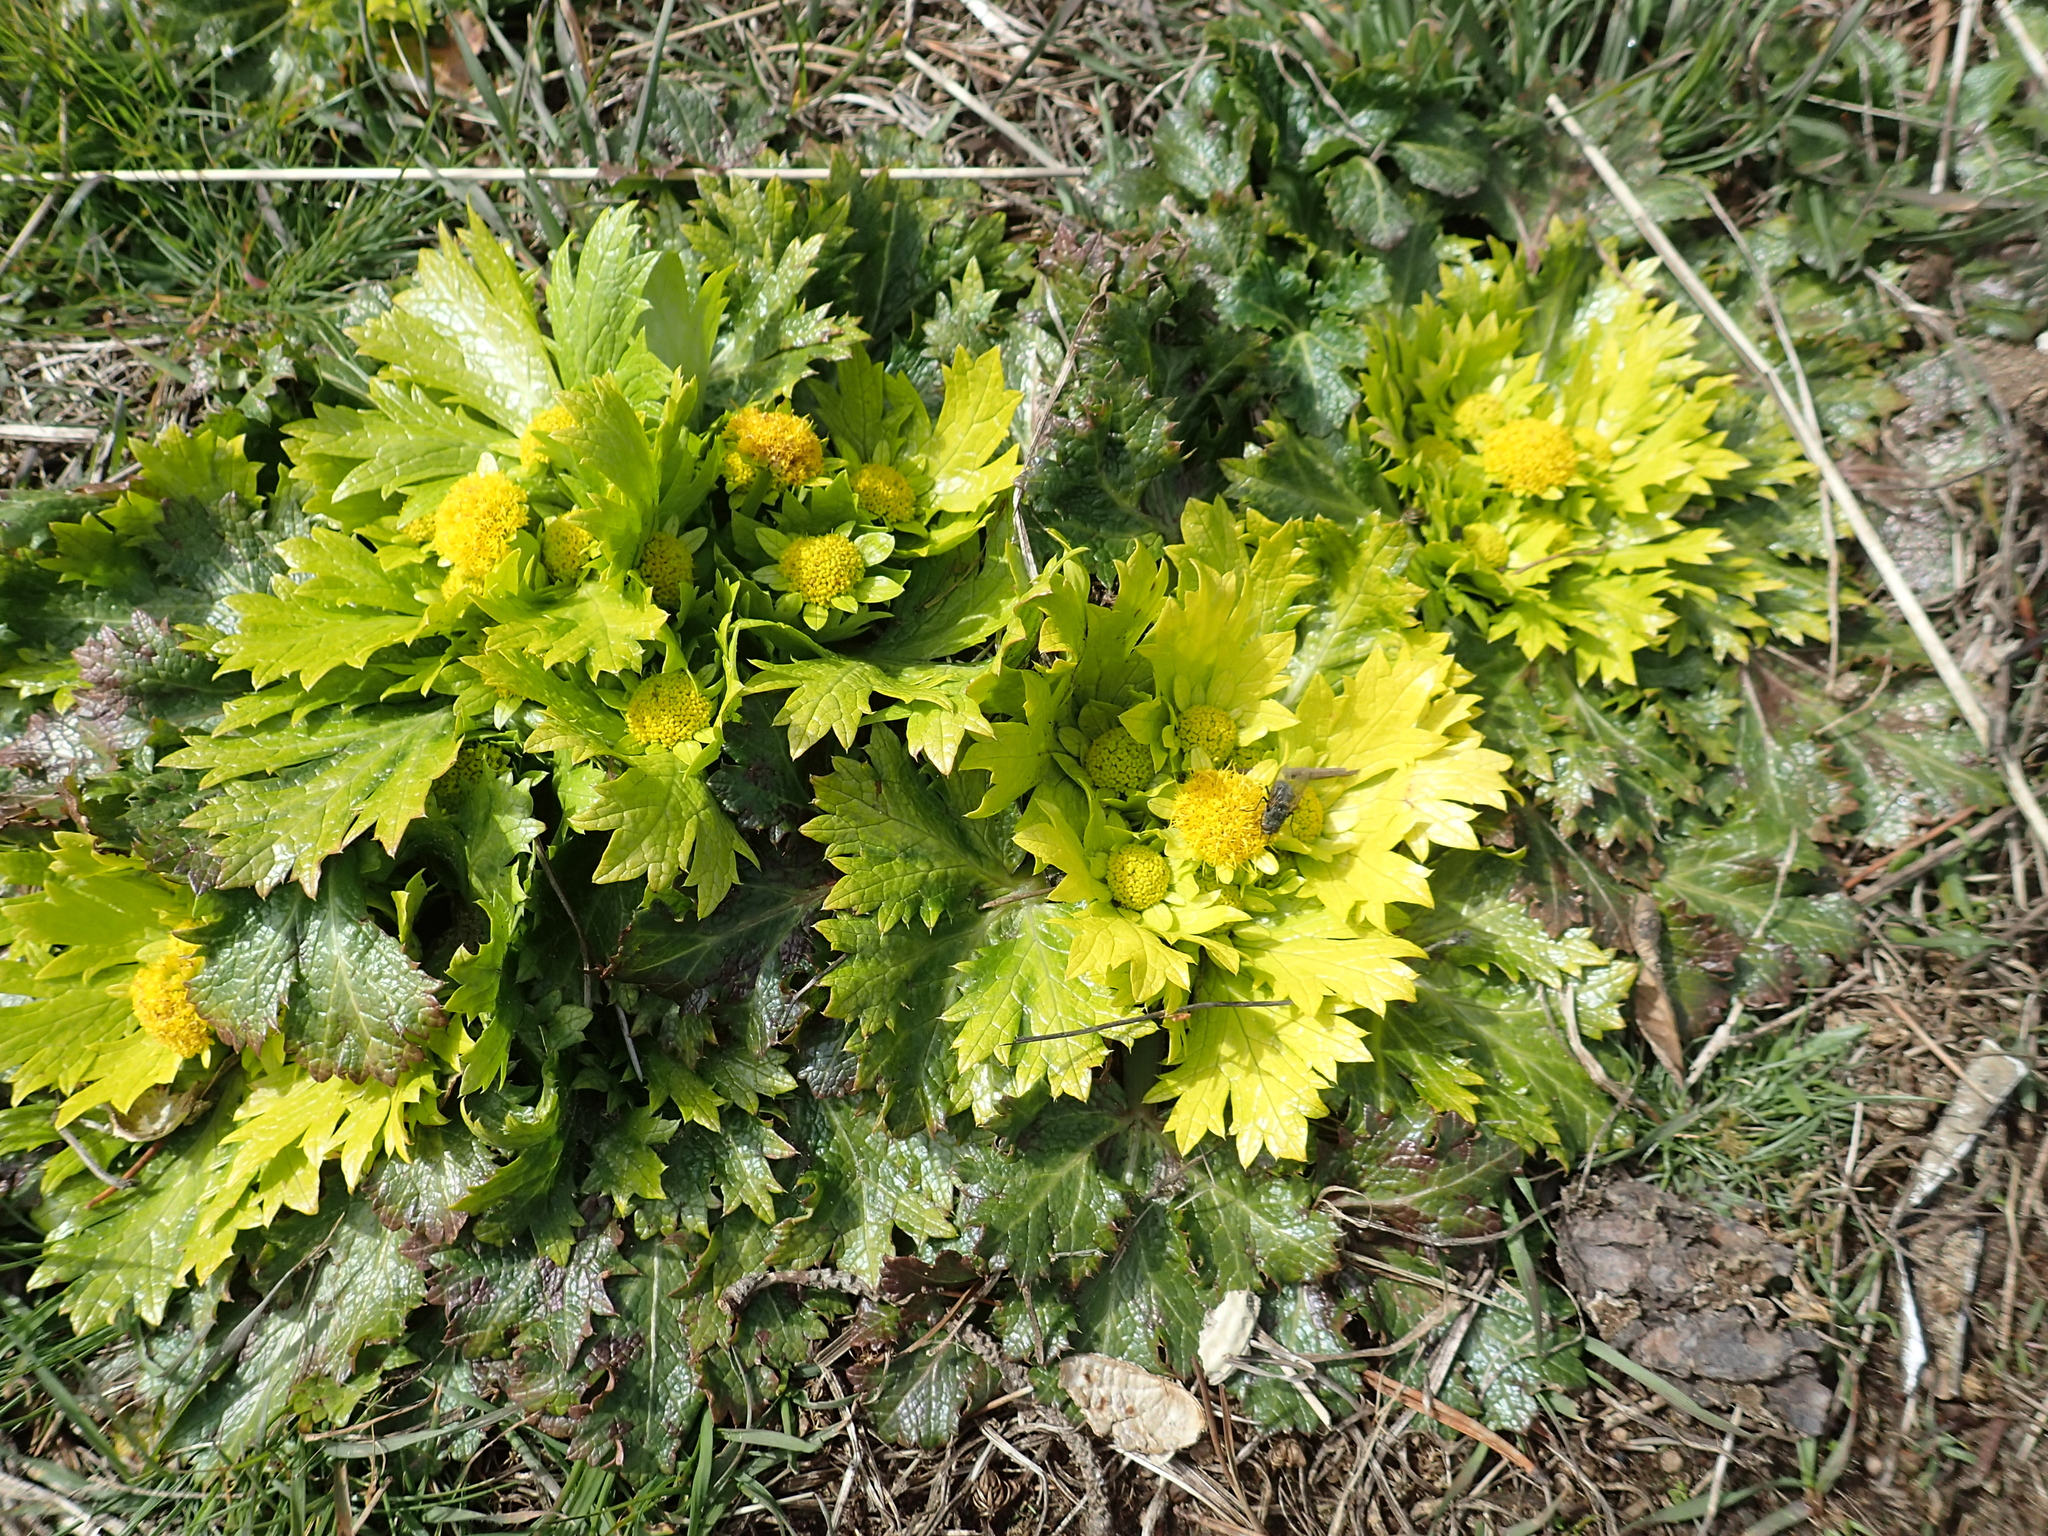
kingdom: Plantae
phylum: Tracheophyta
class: Magnoliopsida
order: Apiales
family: Apiaceae
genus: Sanicula
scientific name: Sanicula arctopoides
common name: Footsteps-of-spring
